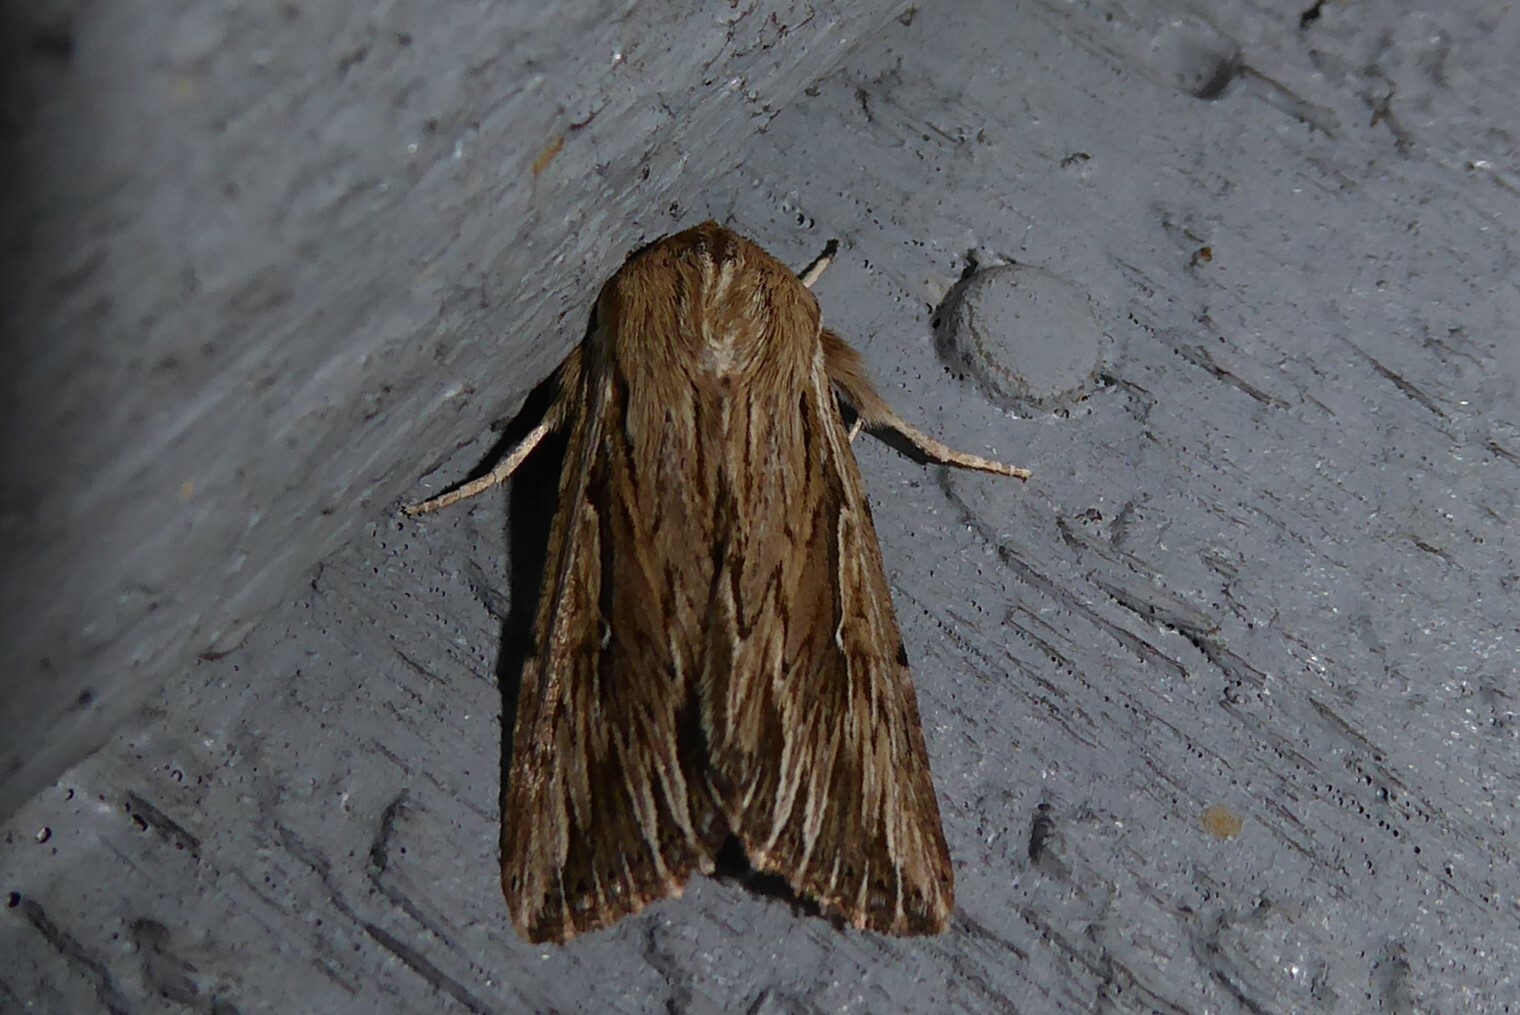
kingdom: Animalia
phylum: Arthropoda
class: Insecta
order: Lepidoptera
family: Noctuidae
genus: Persectania
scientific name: Persectania aversa
